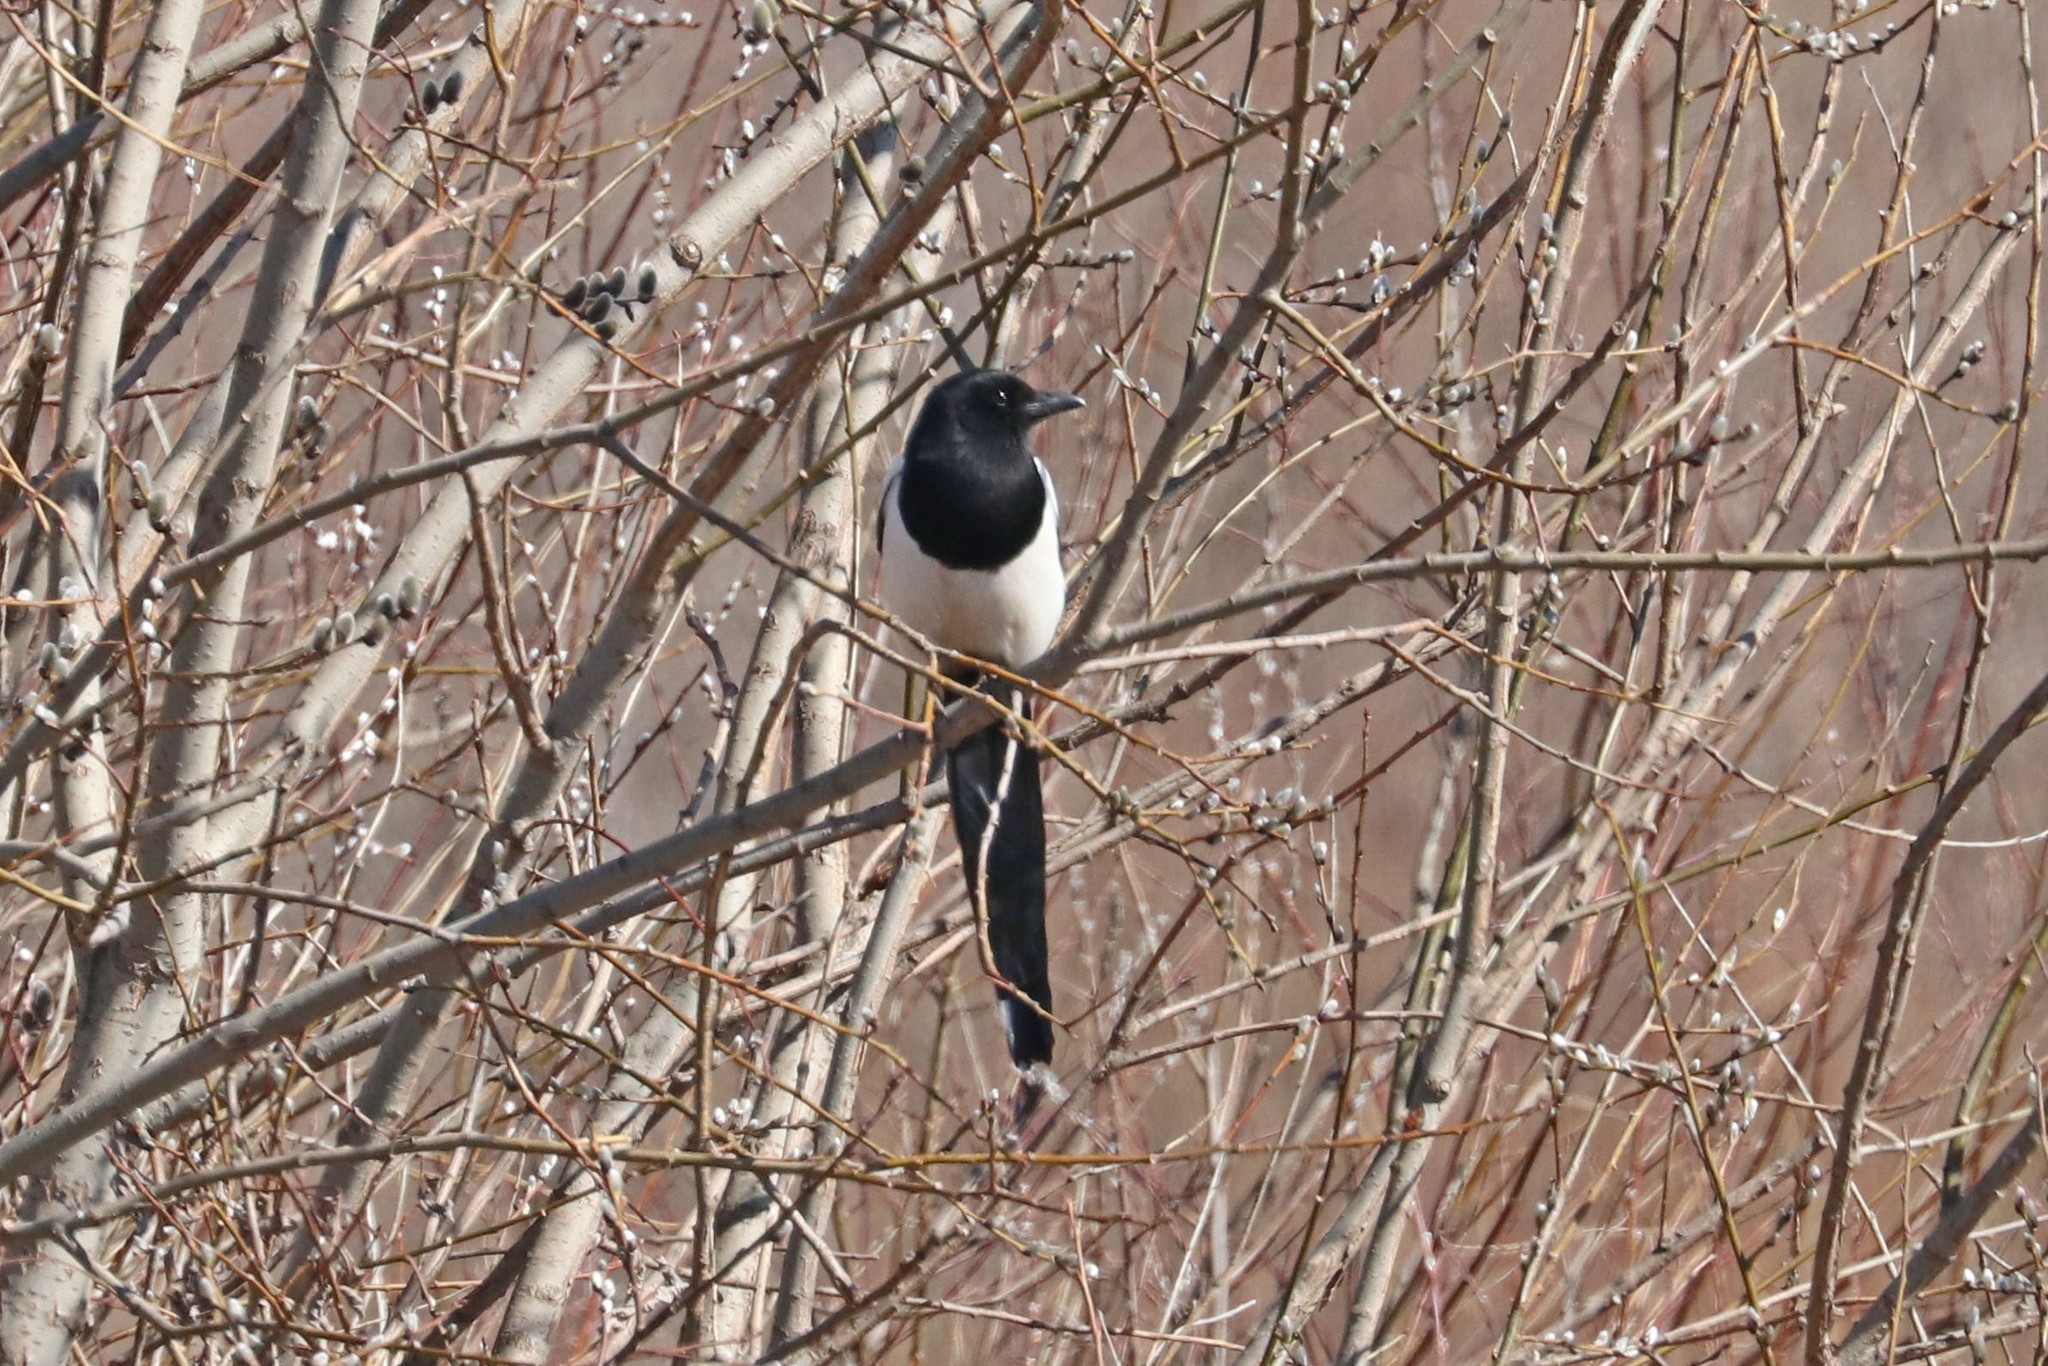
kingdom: Animalia
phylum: Chordata
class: Aves
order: Passeriformes
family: Corvidae
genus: Pica
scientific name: Pica pica
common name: Eurasian magpie
